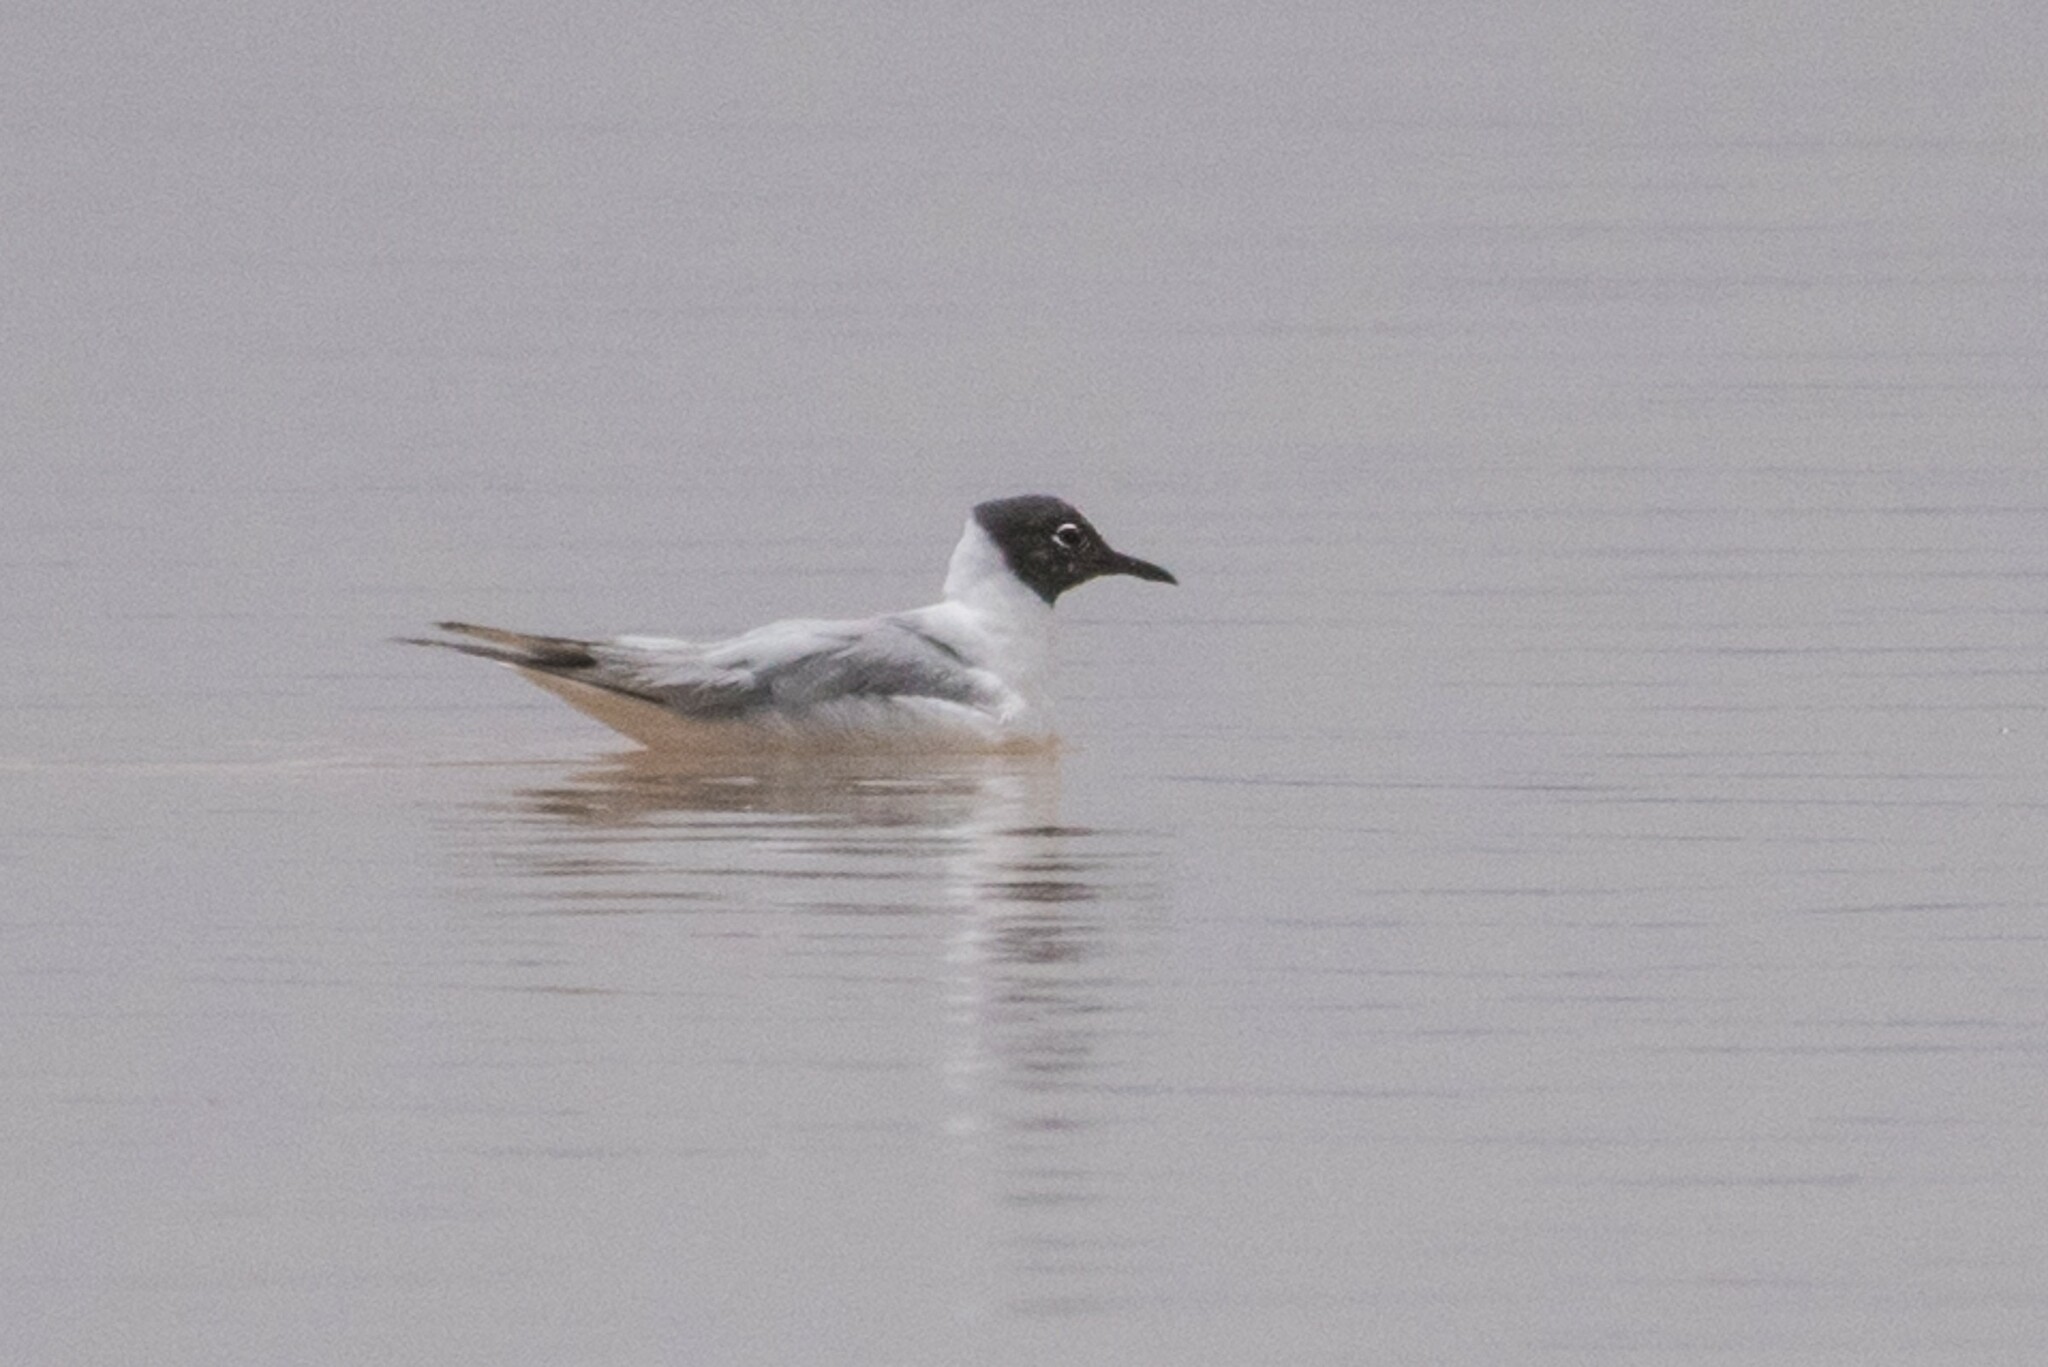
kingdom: Animalia
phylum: Chordata
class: Aves
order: Charadriiformes
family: Laridae
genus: Chroicocephalus
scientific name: Chroicocephalus philadelphia
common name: Bonaparte's gull
